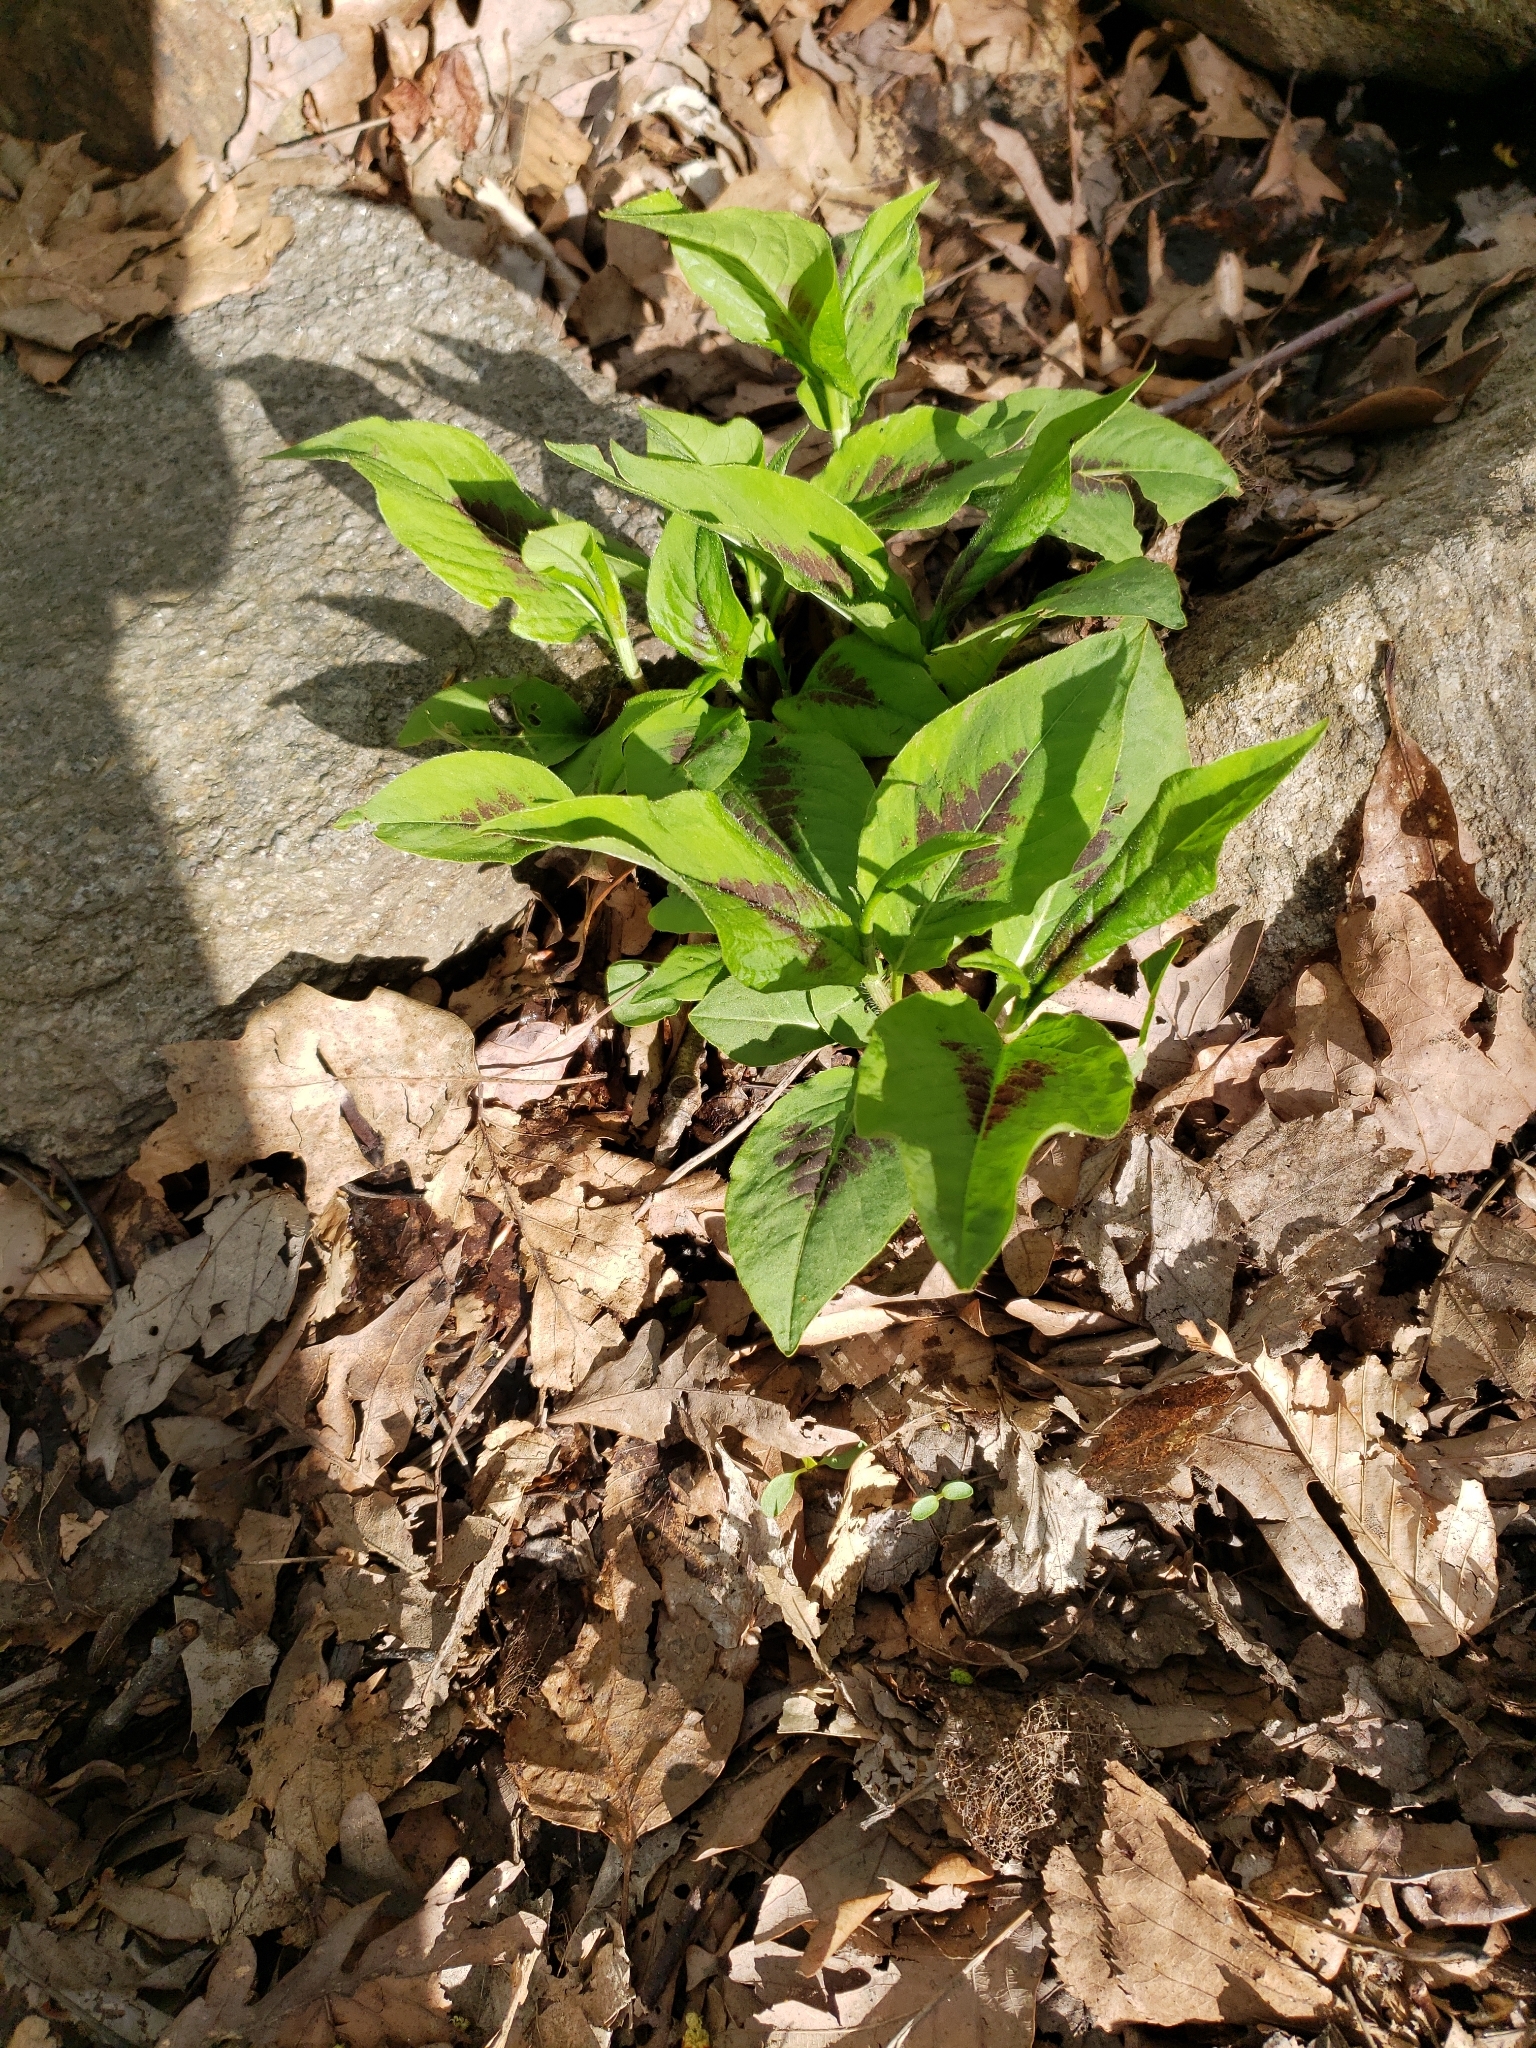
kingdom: Plantae
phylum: Tracheophyta
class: Magnoliopsida
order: Caryophyllales
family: Polygonaceae
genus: Persicaria
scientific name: Persicaria virginiana
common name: Jumpseed
